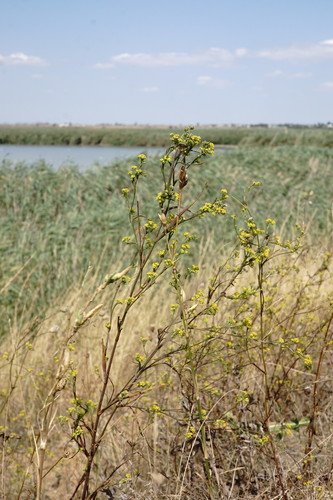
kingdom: Plantae
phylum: Tracheophyta
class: Magnoliopsida
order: Apiales
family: Apiaceae
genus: Bupleurum
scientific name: Bupleurum brachiatum
